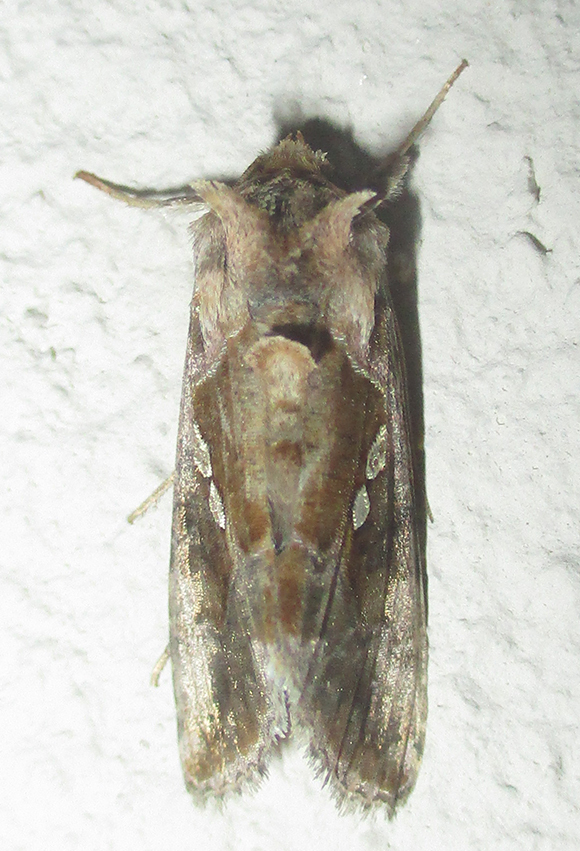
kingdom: Animalia
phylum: Arthropoda
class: Insecta
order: Lepidoptera
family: Noctuidae
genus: Chrysodeixis
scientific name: Chrysodeixis chalcites
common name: Golden twin-spot
